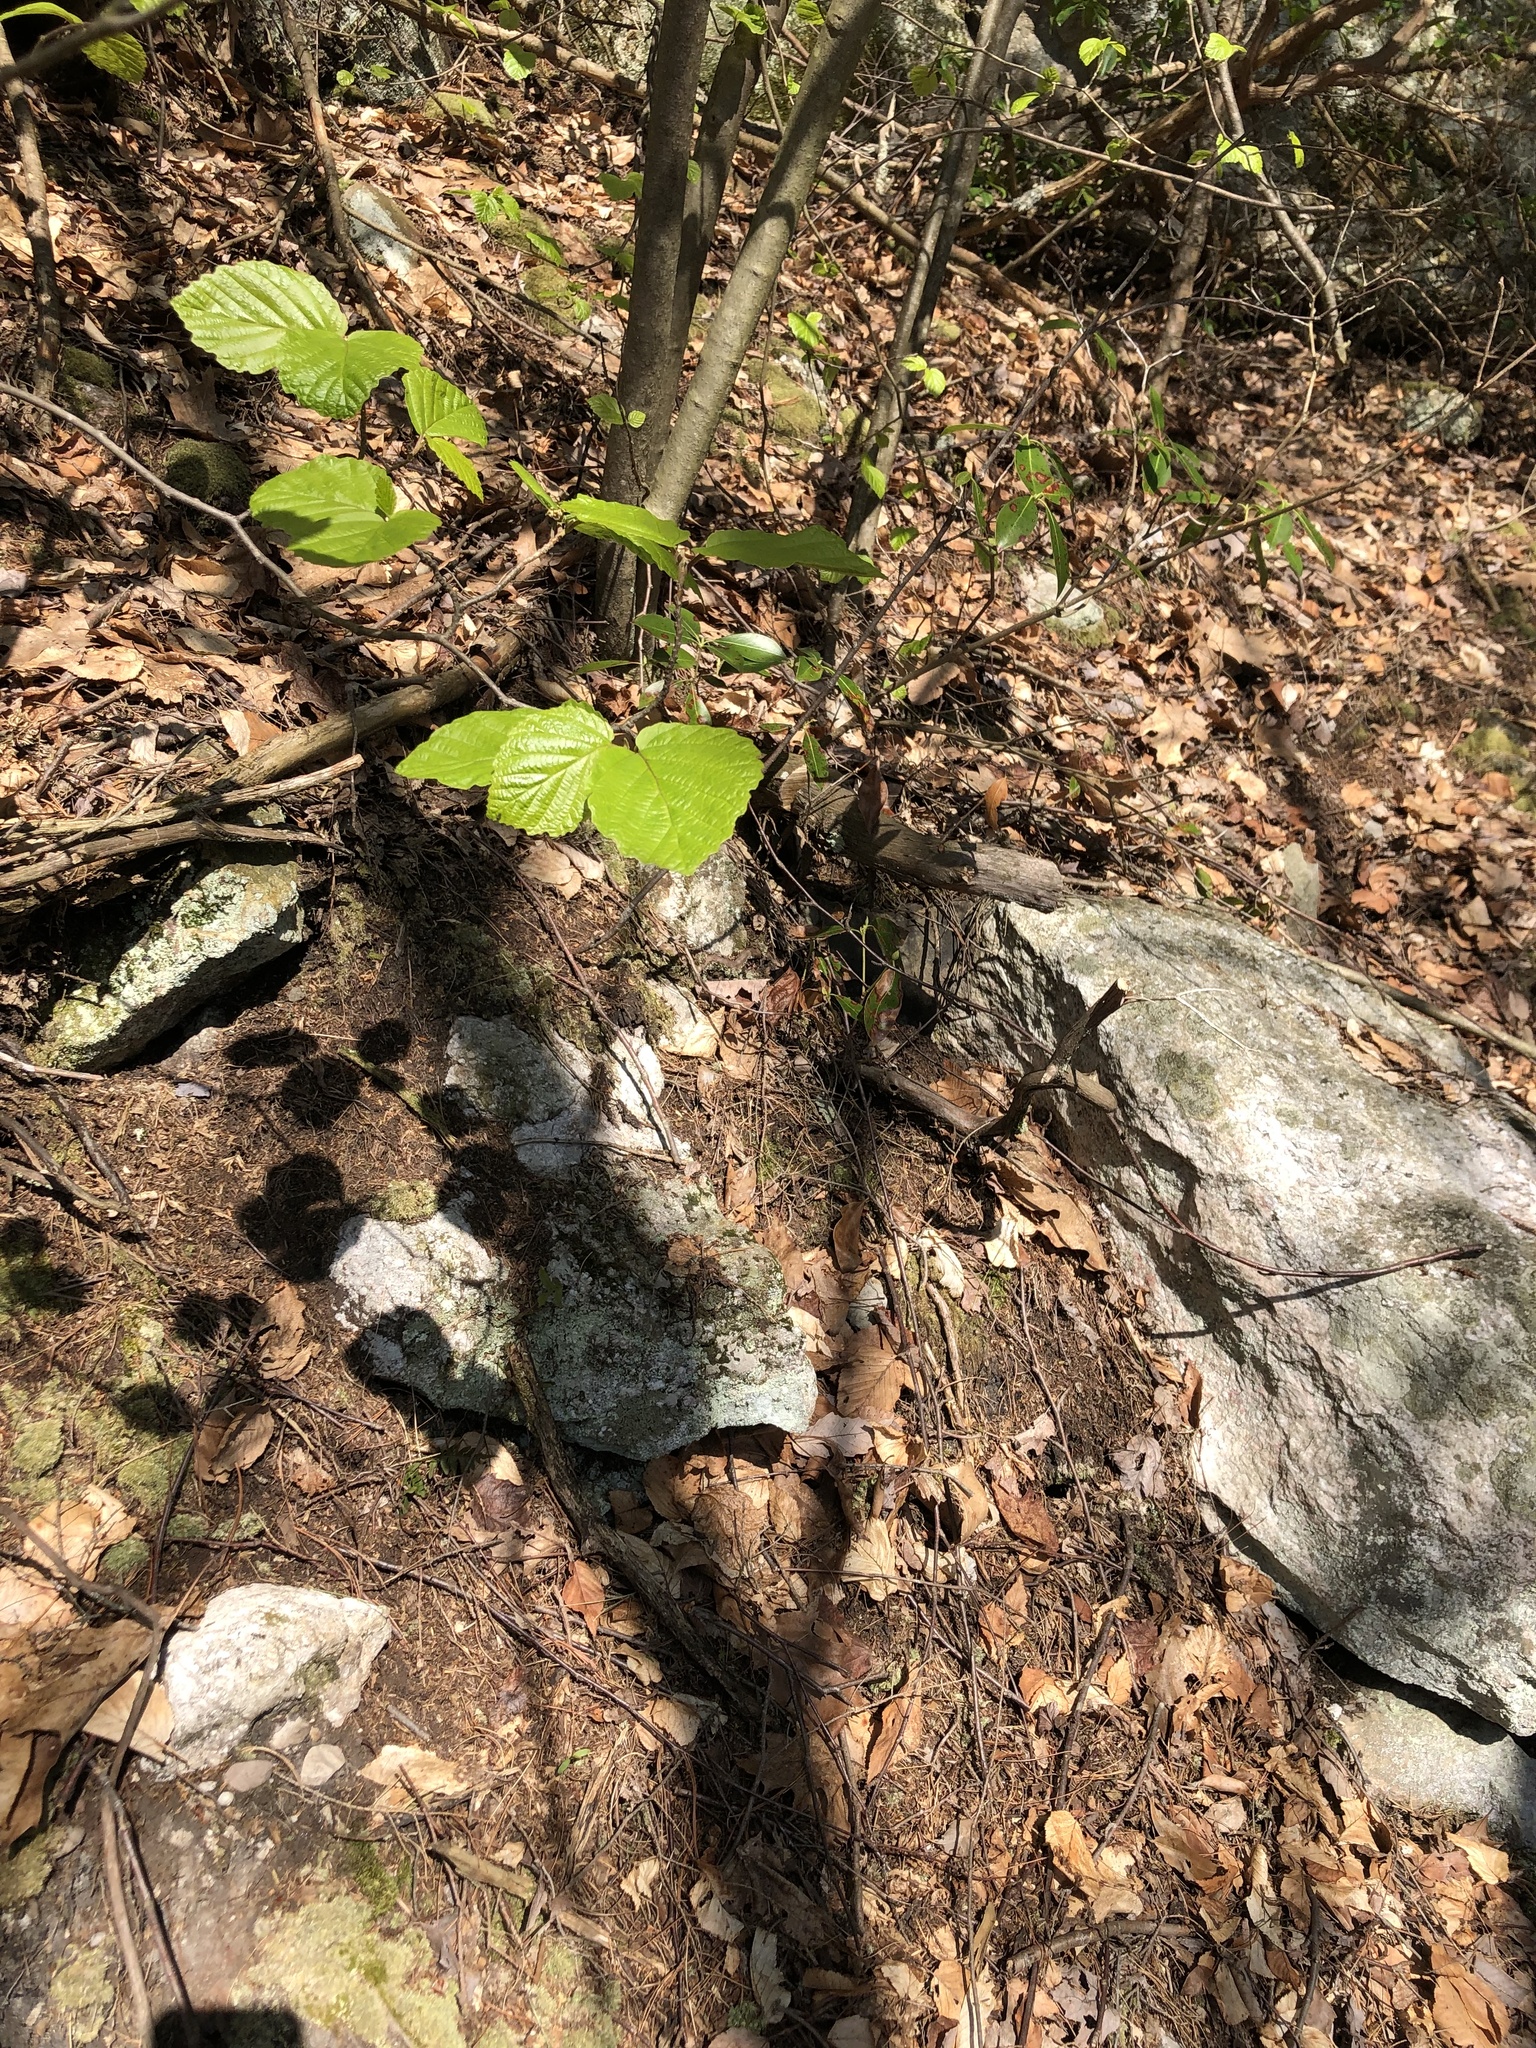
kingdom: Plantae
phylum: Tracheophyta
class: Magnoliopsida
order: Saxifragales
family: Hamamelidaceae
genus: Hamamelis
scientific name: Hamamelis virginiana
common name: Witch-hazel
